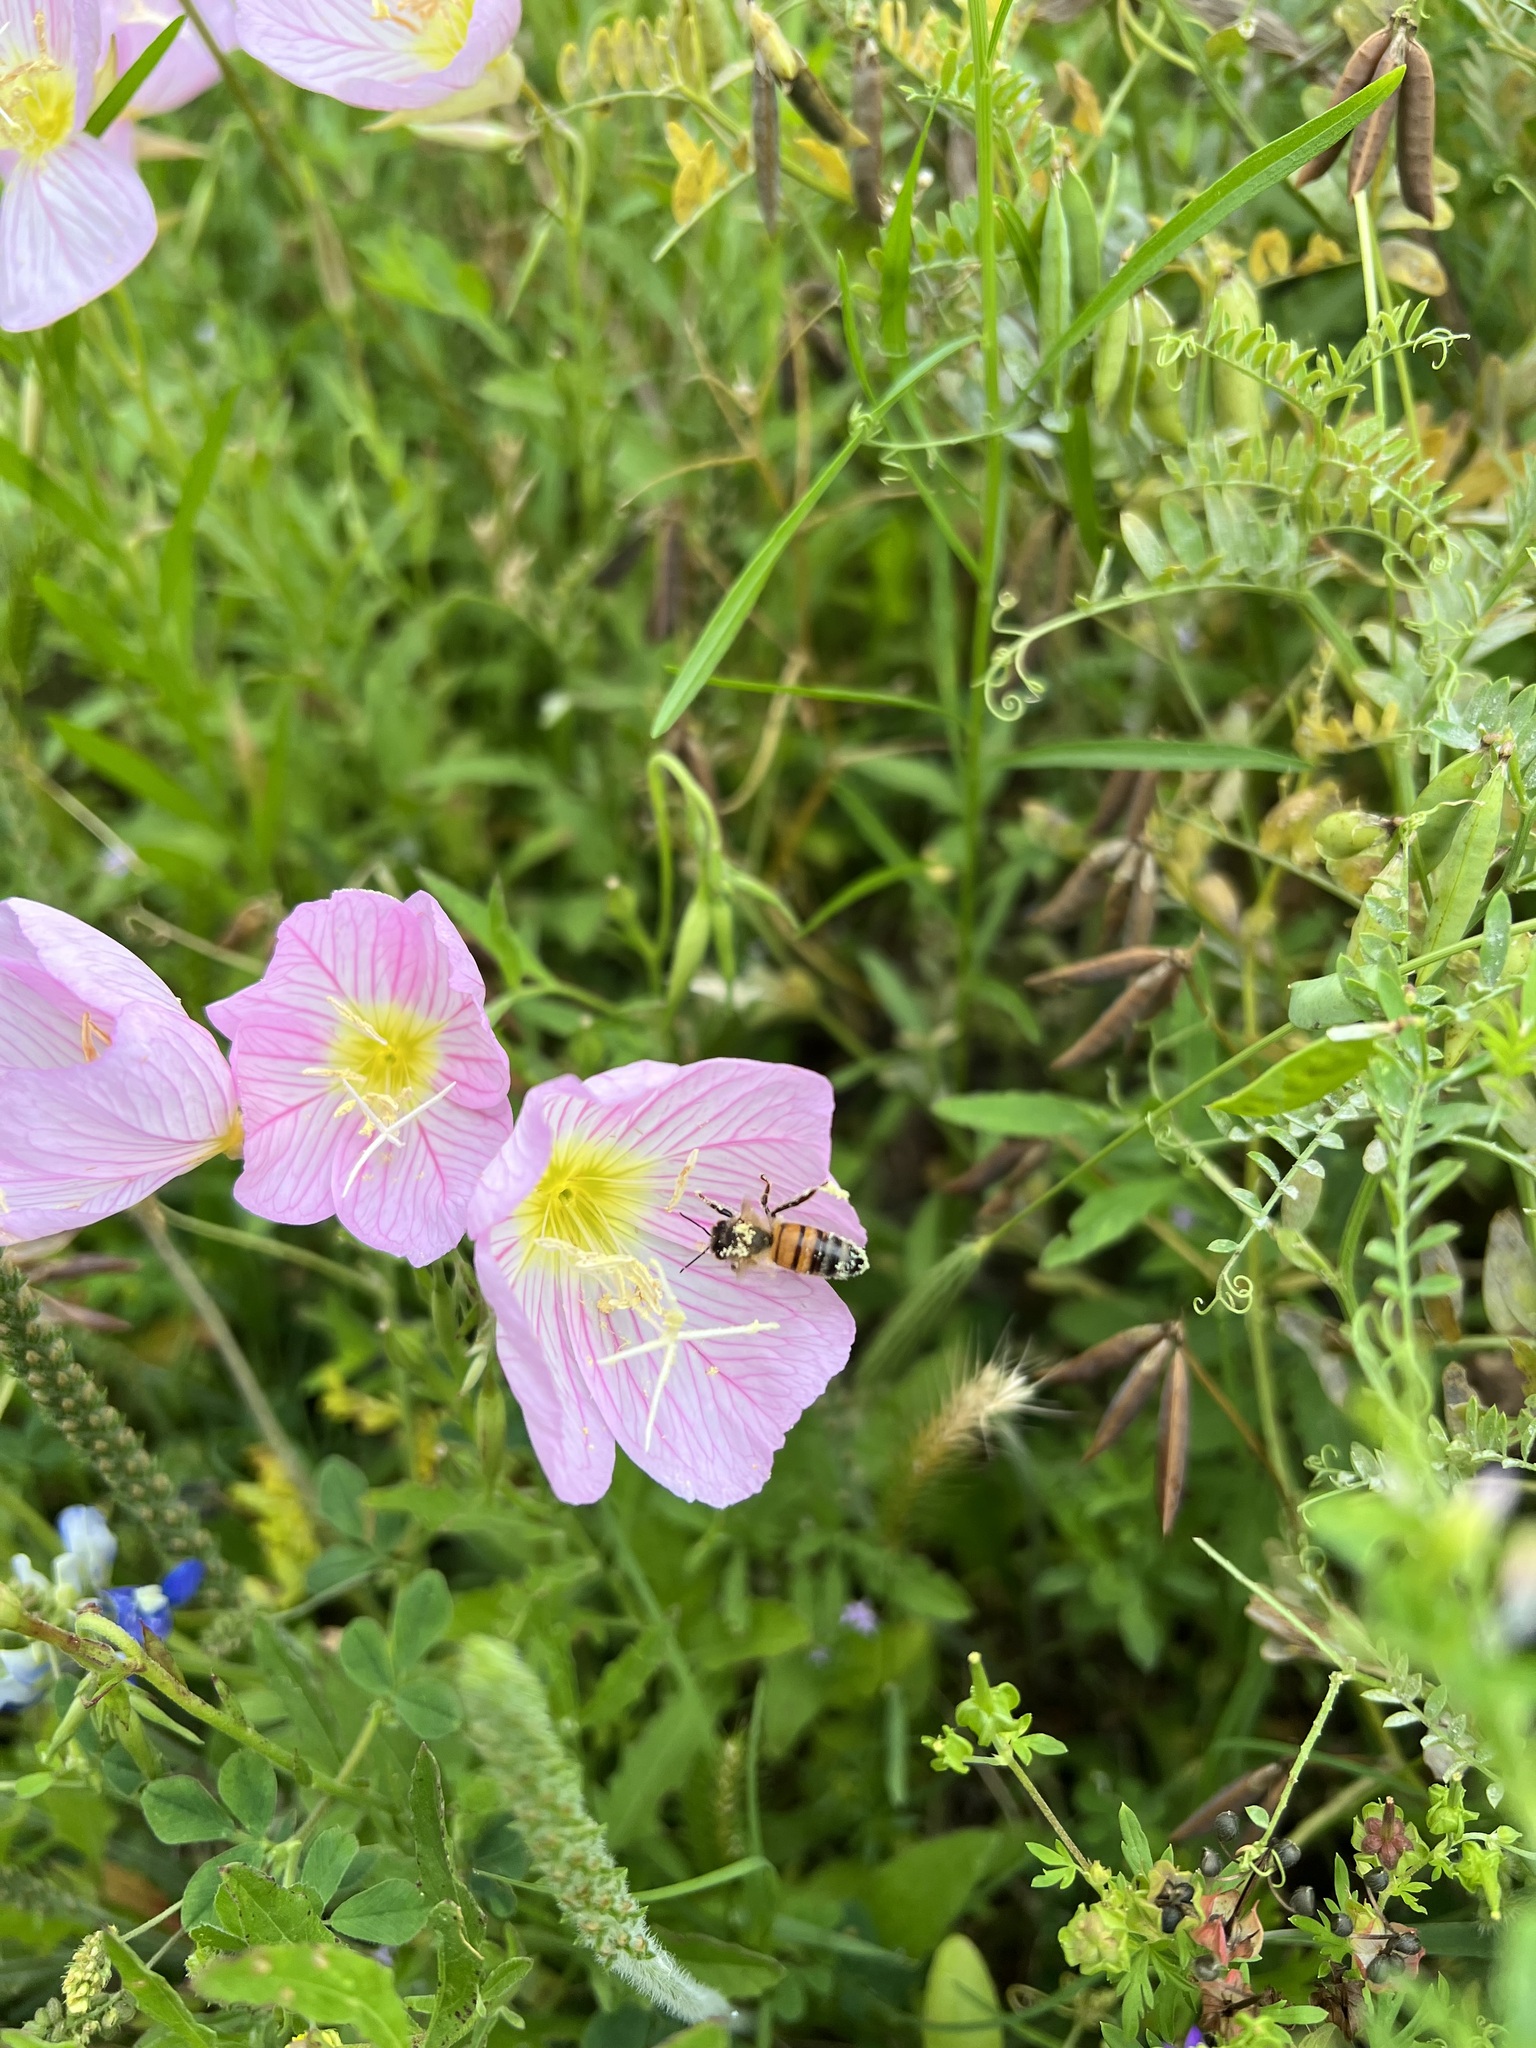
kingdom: Plantae
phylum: Tracheophyta
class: Magnoliopsida
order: Myrtales
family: Onagraceae
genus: Oenothera
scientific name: Oenothera speciosa
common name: White evening-primrose
